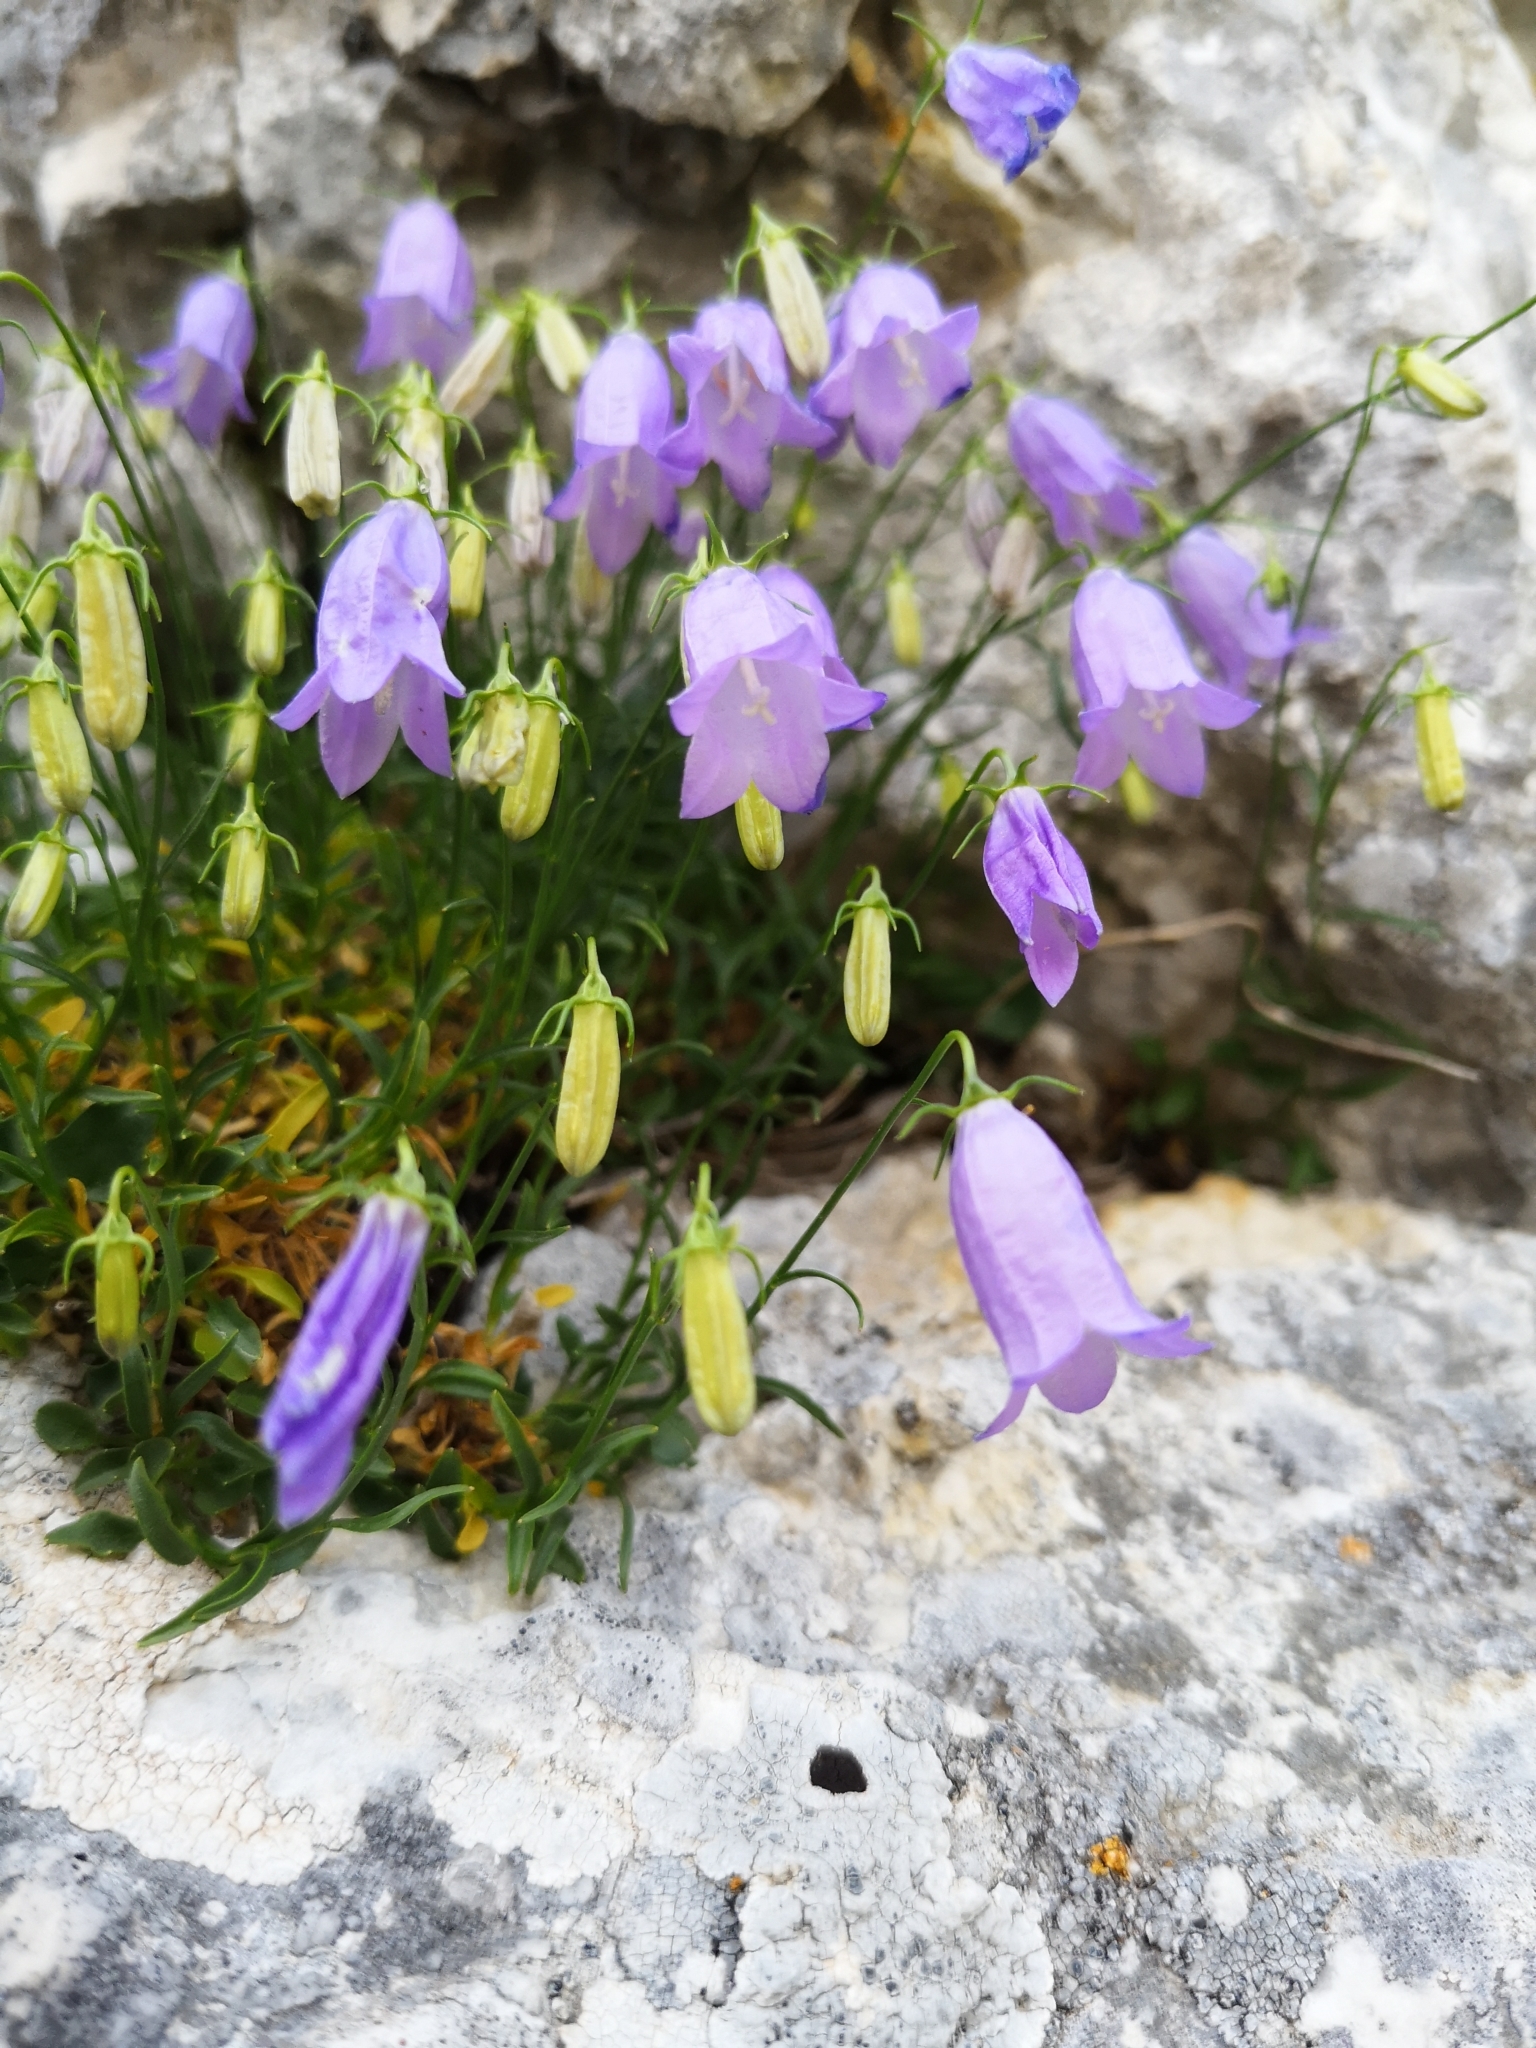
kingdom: Plantae
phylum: Tracheophyta
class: Magnoliopsida
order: Asterales
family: Campanulaceae
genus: Campanula
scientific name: Campanula tanfanii
